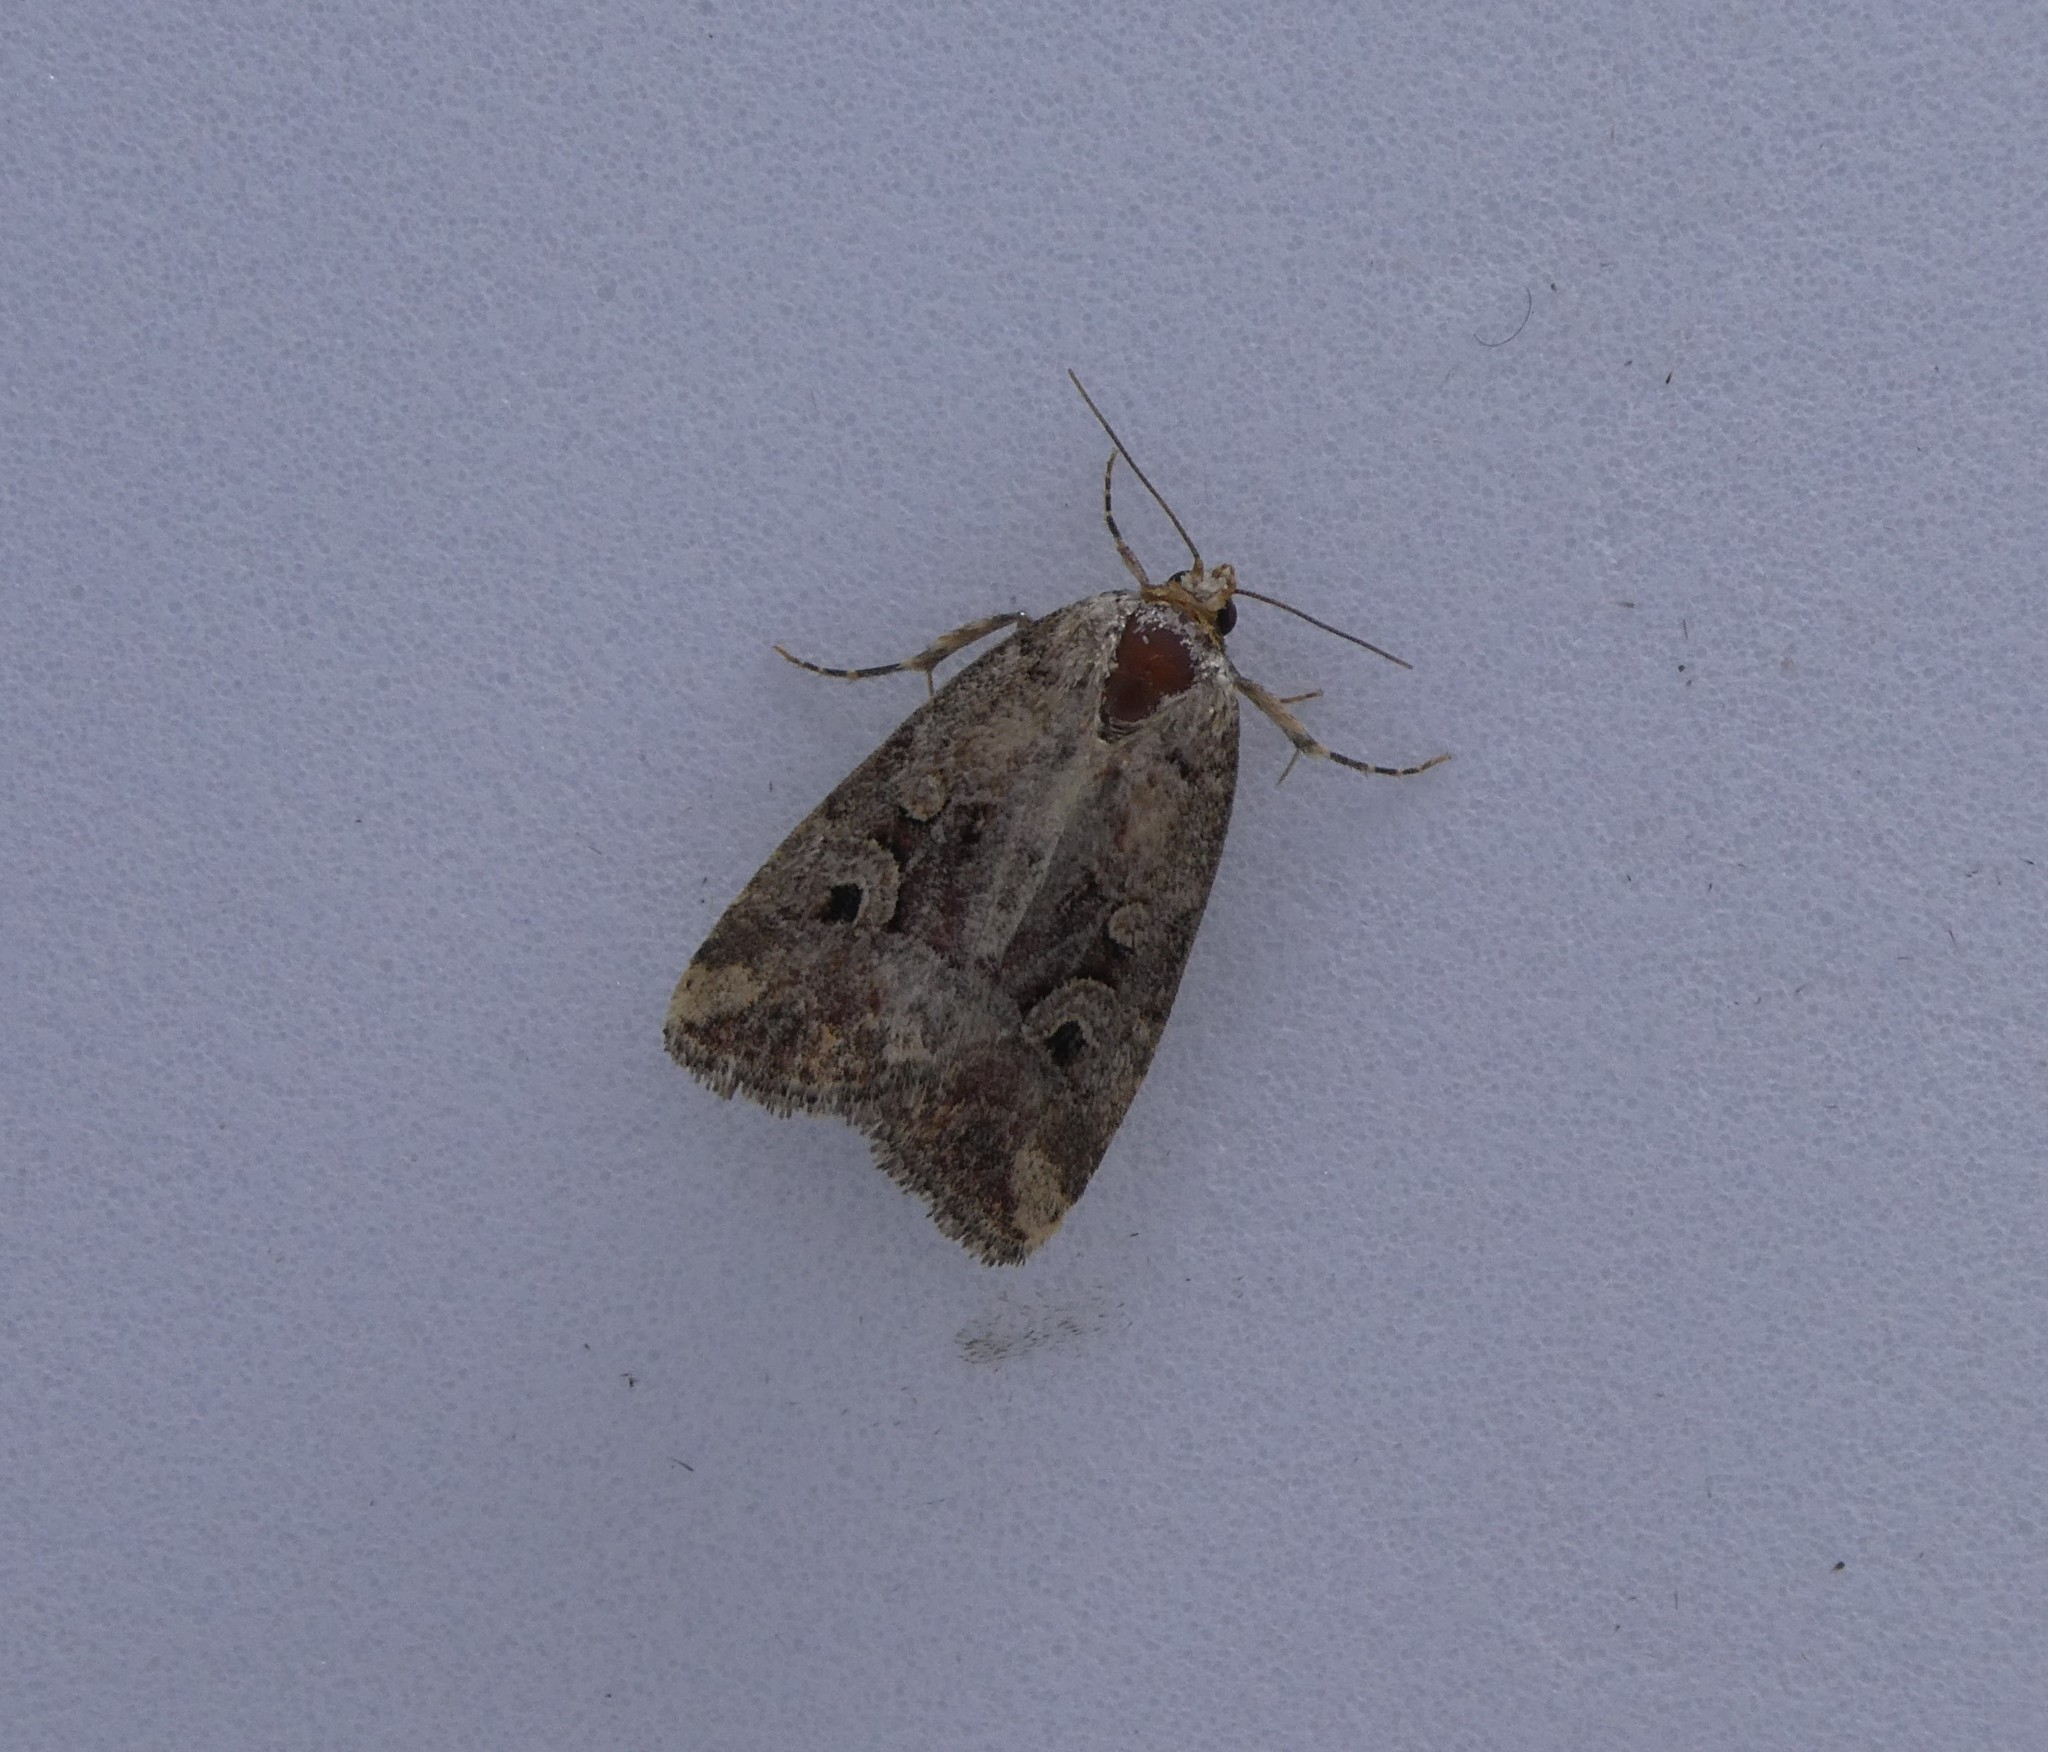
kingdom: Animalia
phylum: Arthropoda
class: Insecta
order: Lepidoptera
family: Noctuidae
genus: Elaphria
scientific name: Elaphria alapallida
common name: Pale-winged midget
